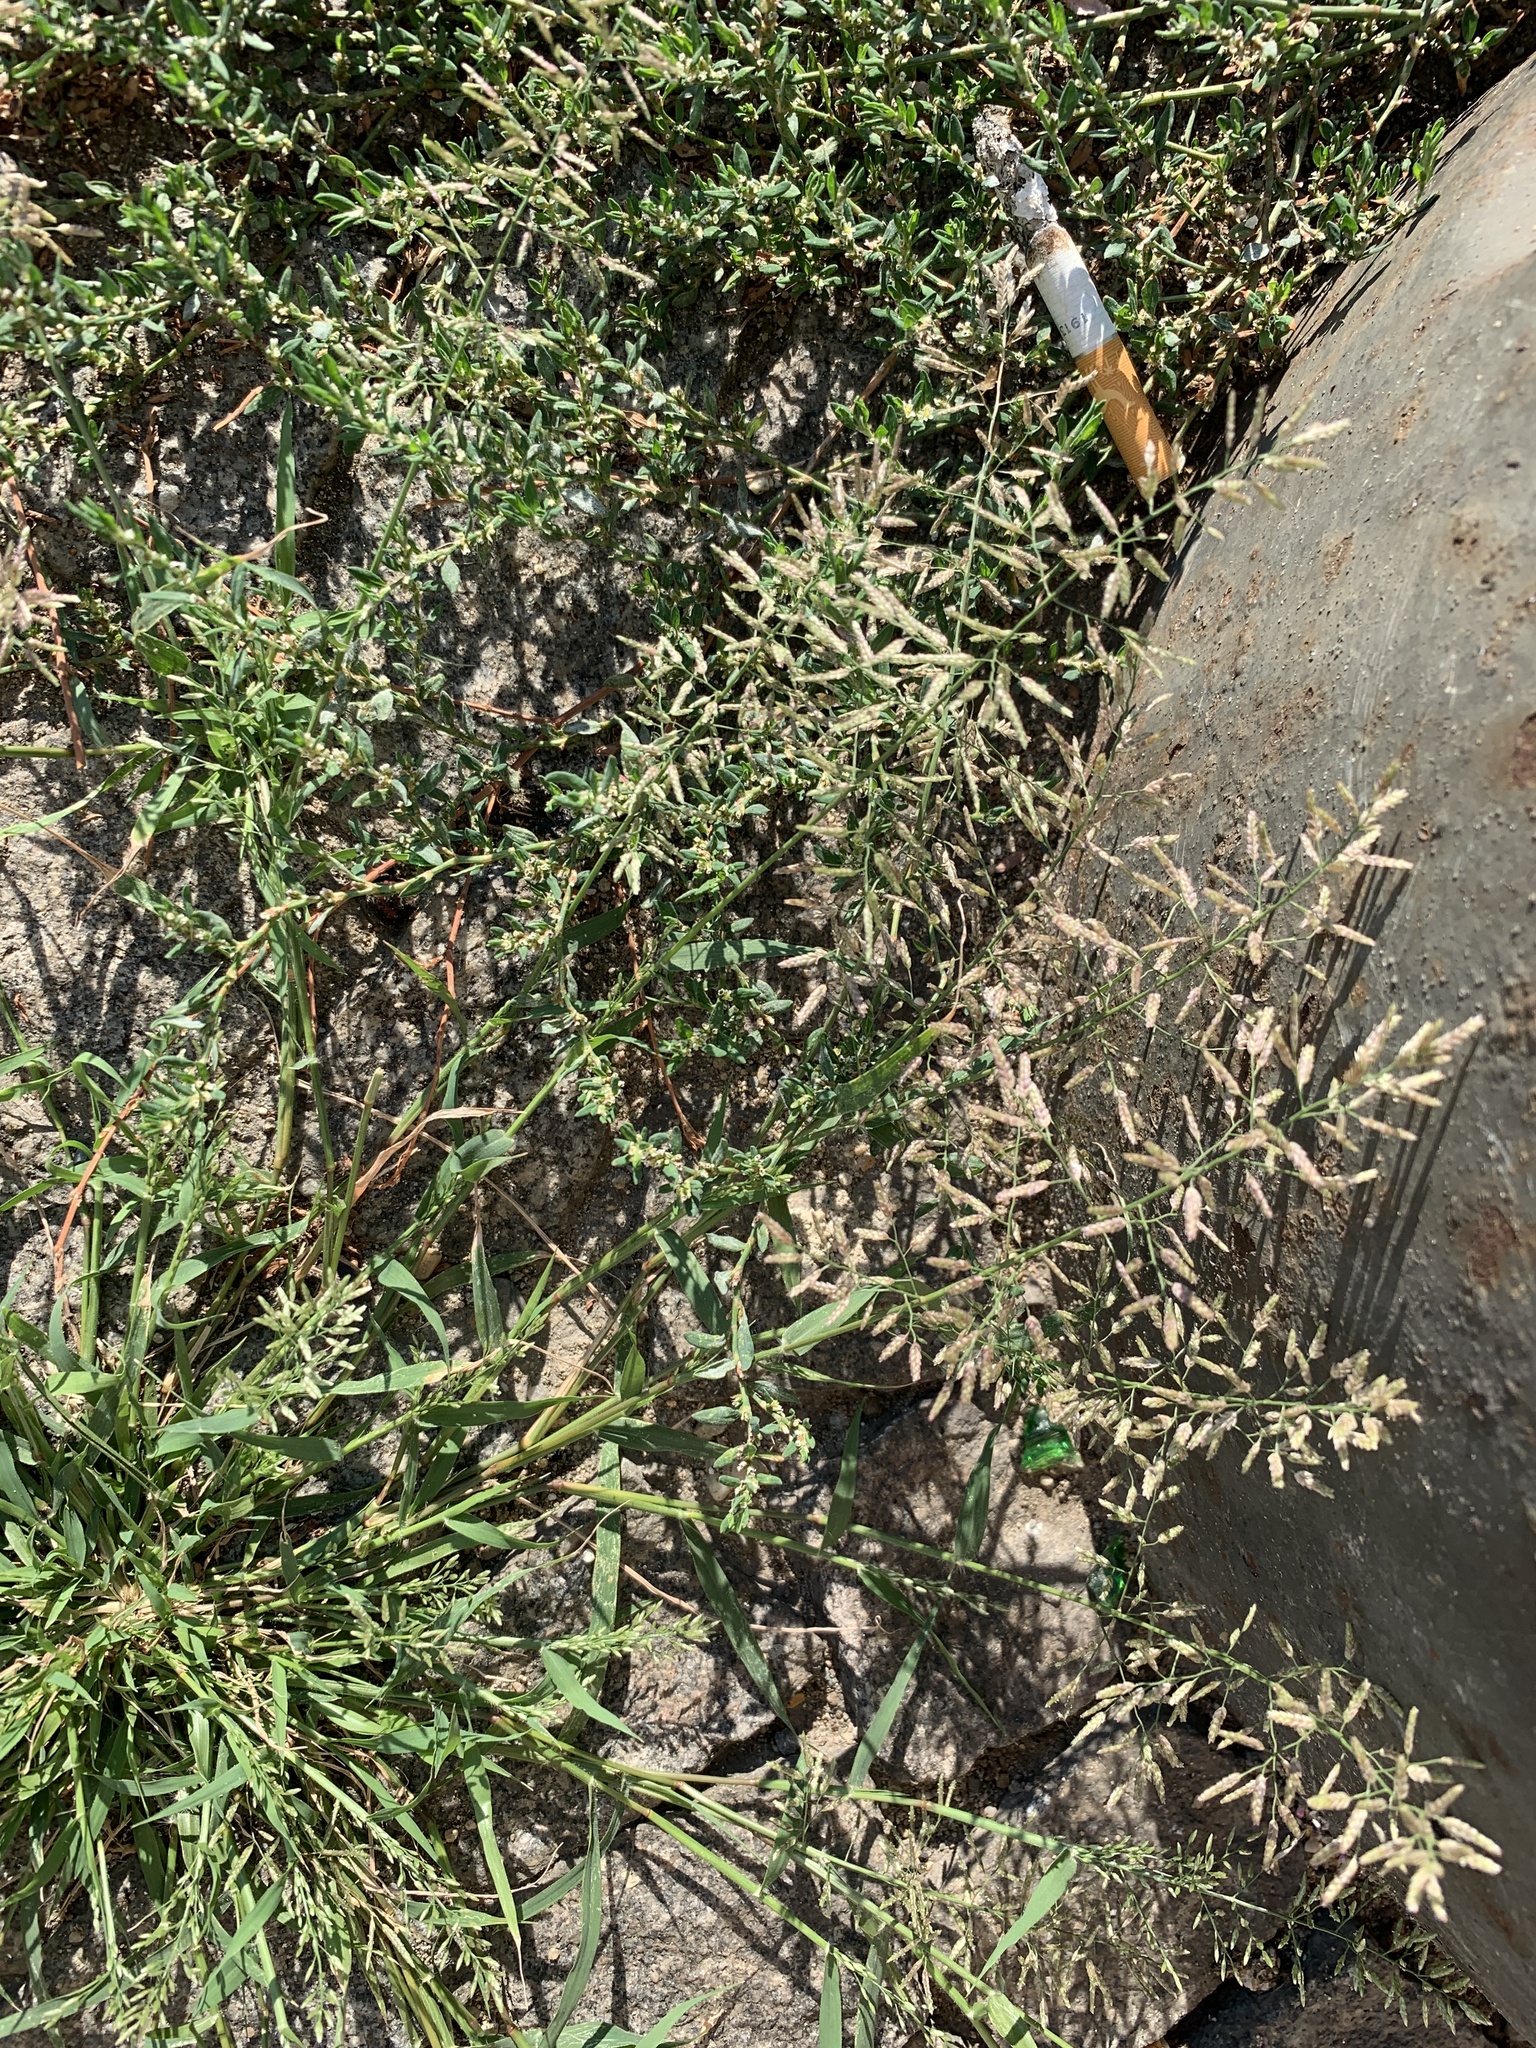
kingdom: Plantae
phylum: Tracheophyta
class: Liliopsida
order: Poales
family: Poaceae
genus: Eragrostis
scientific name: Eragrostis minor
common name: Small love-grass
